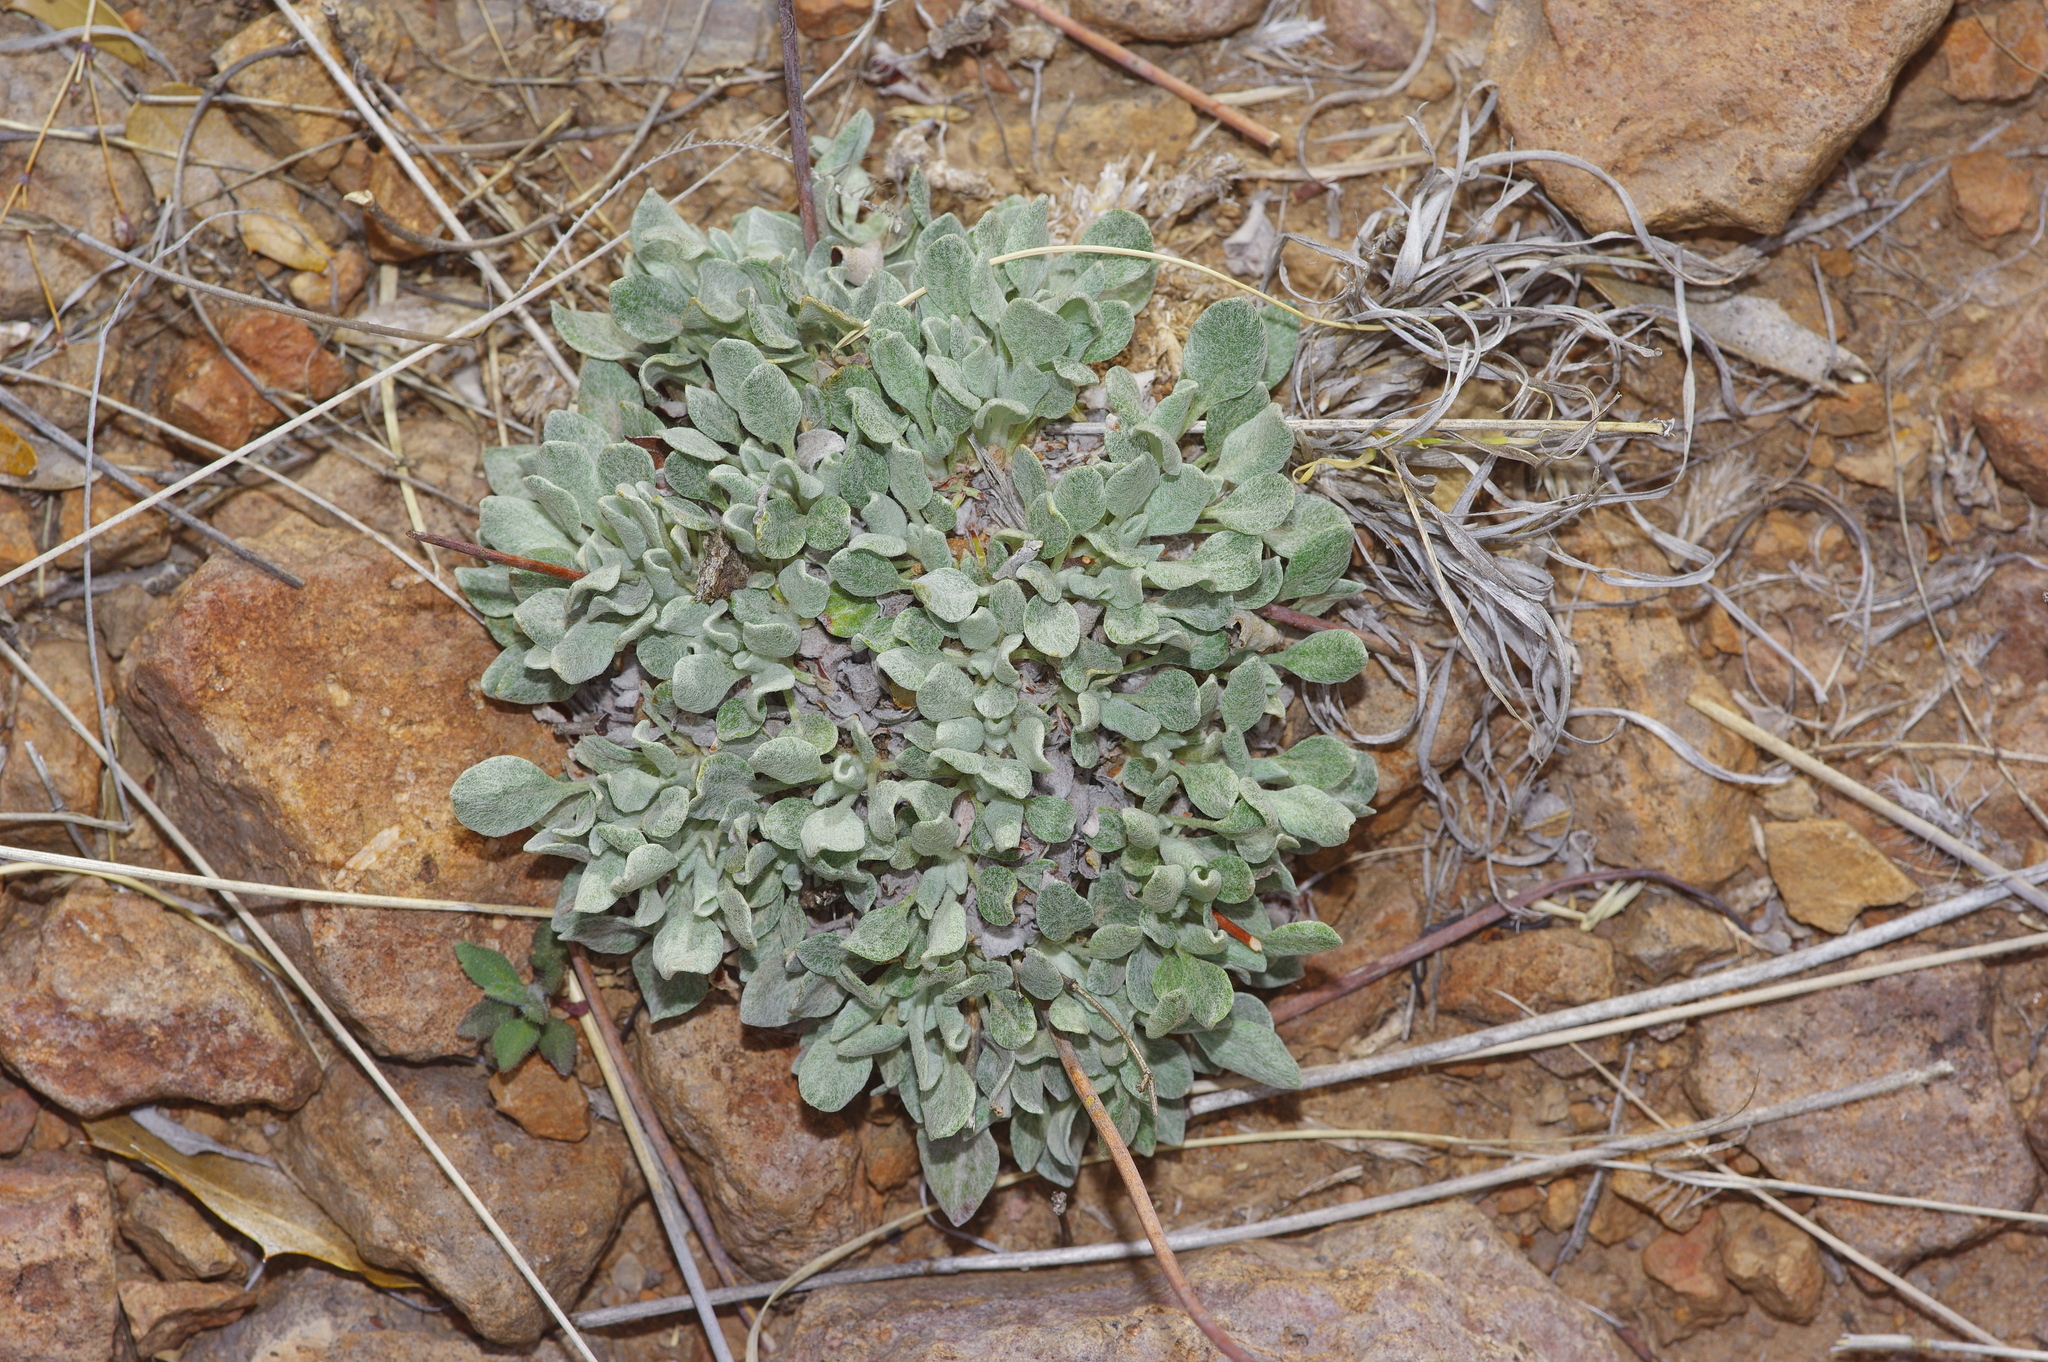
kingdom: Plantae
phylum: Tracheophyta
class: Magnoliopsida
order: Caryophyllales
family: Polygonaceae
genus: Eriogonum
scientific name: Eriogonum tenellum
